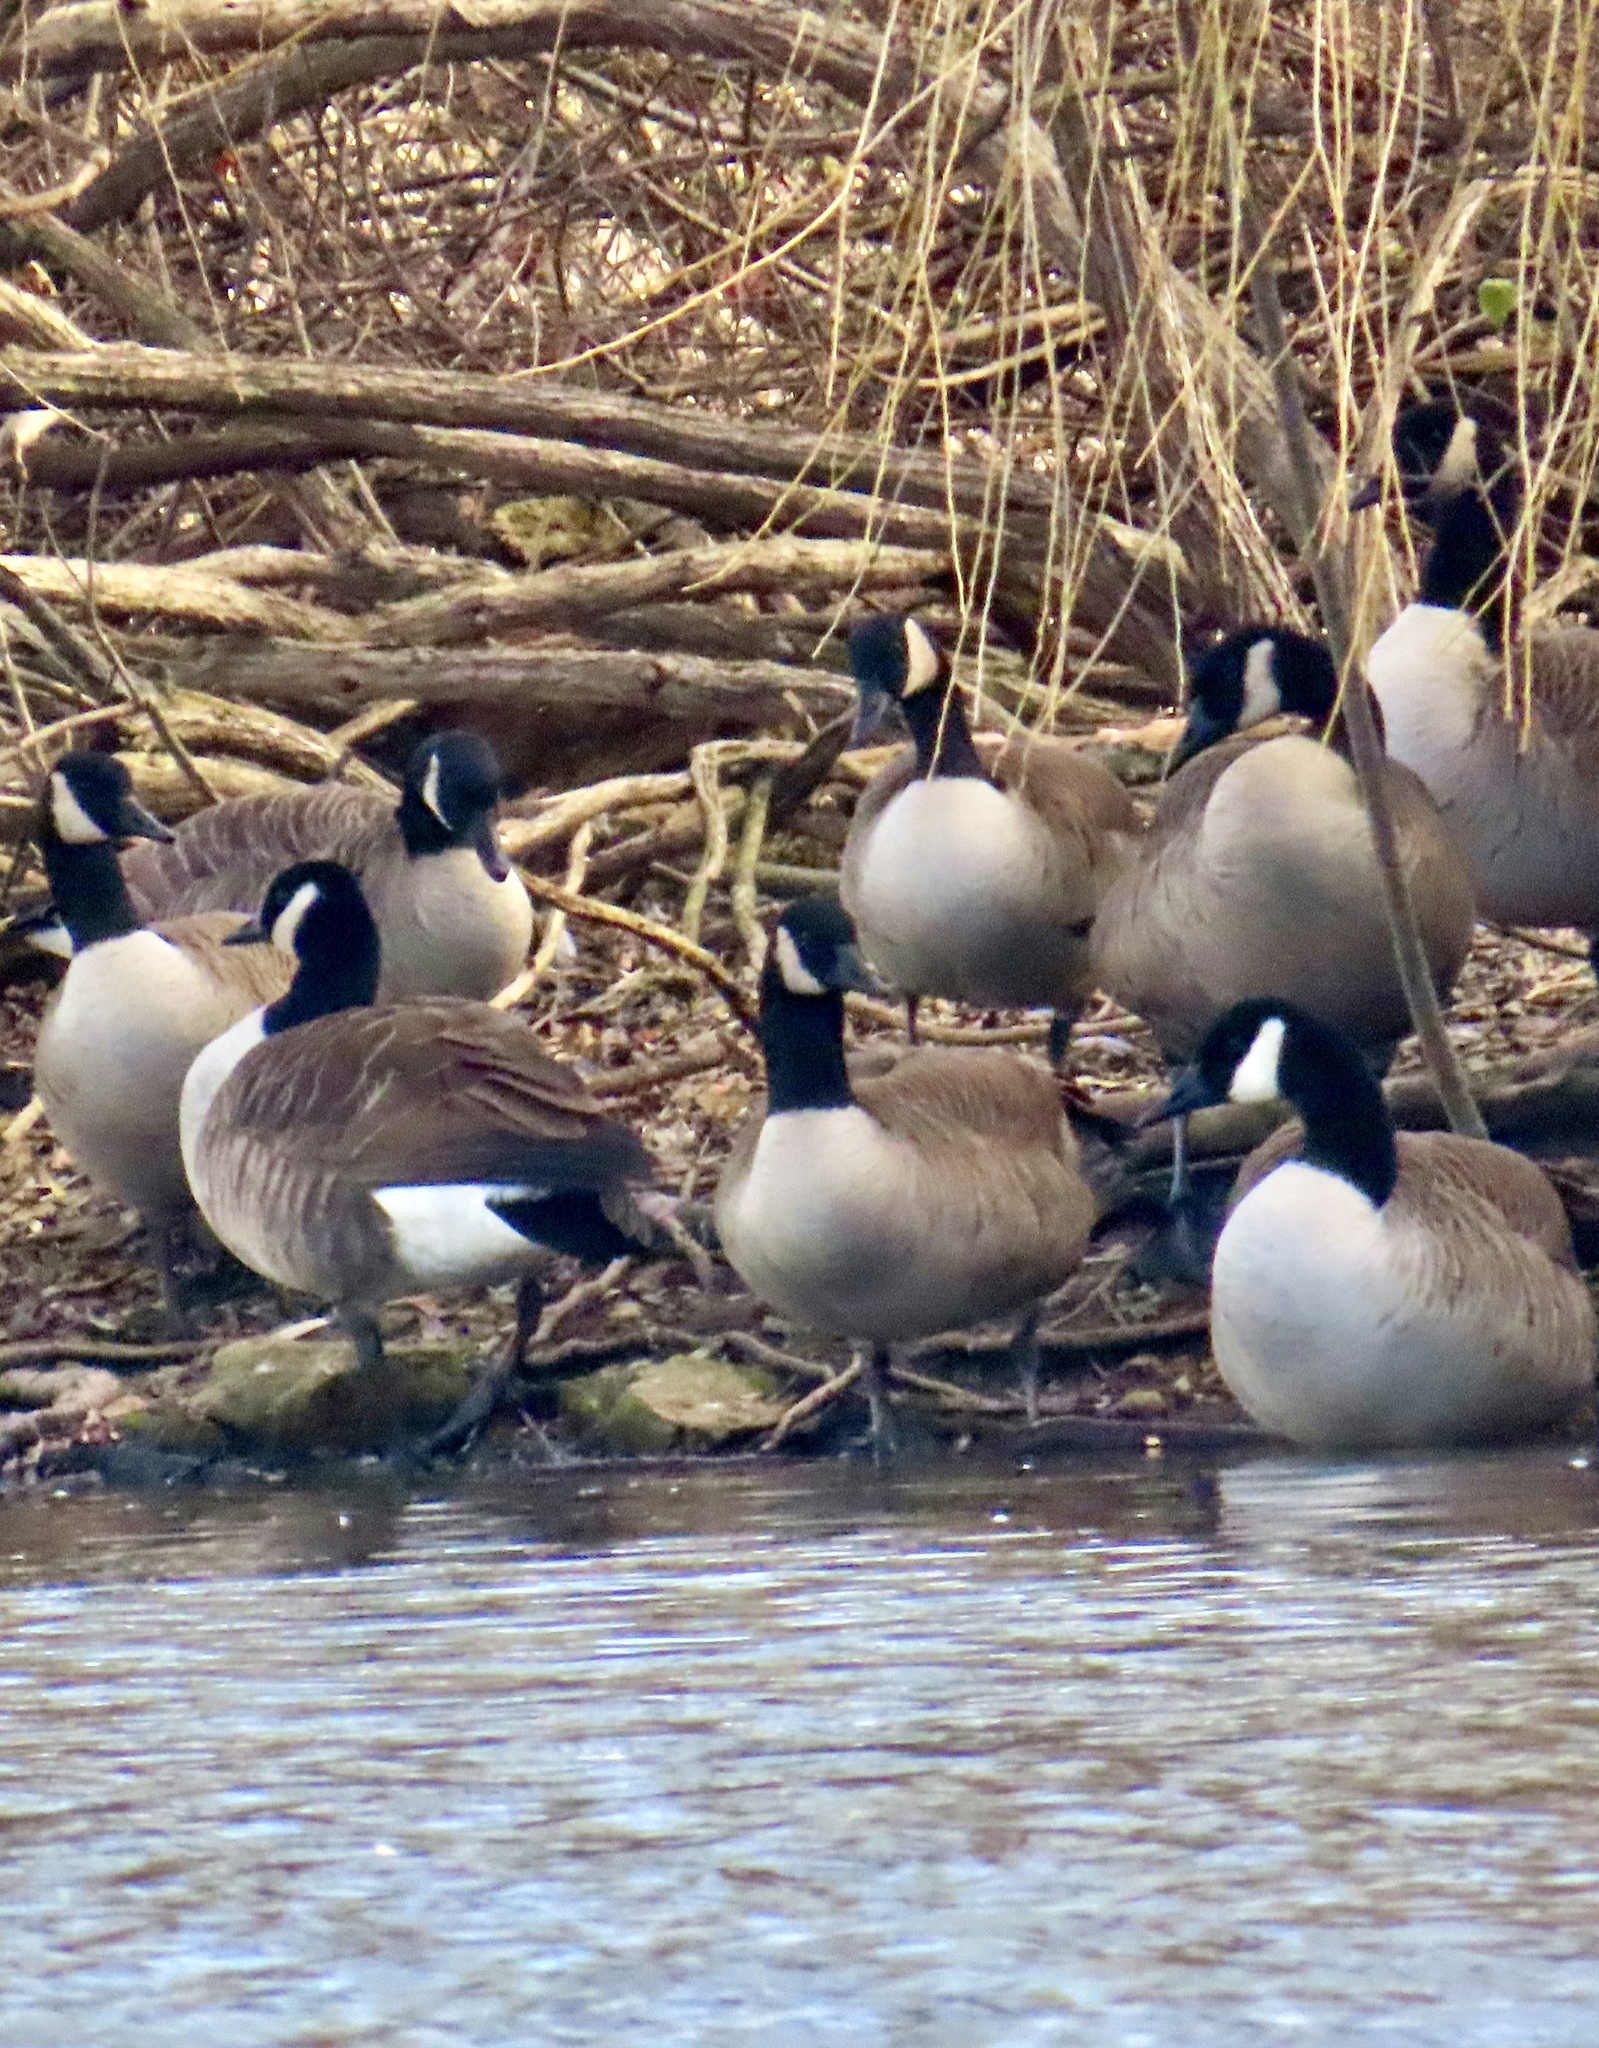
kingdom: Animalia
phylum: Chordata
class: Aves
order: Anseriformes
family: Anatidae
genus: Branta
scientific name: Branta canadensis
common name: Canada goose
